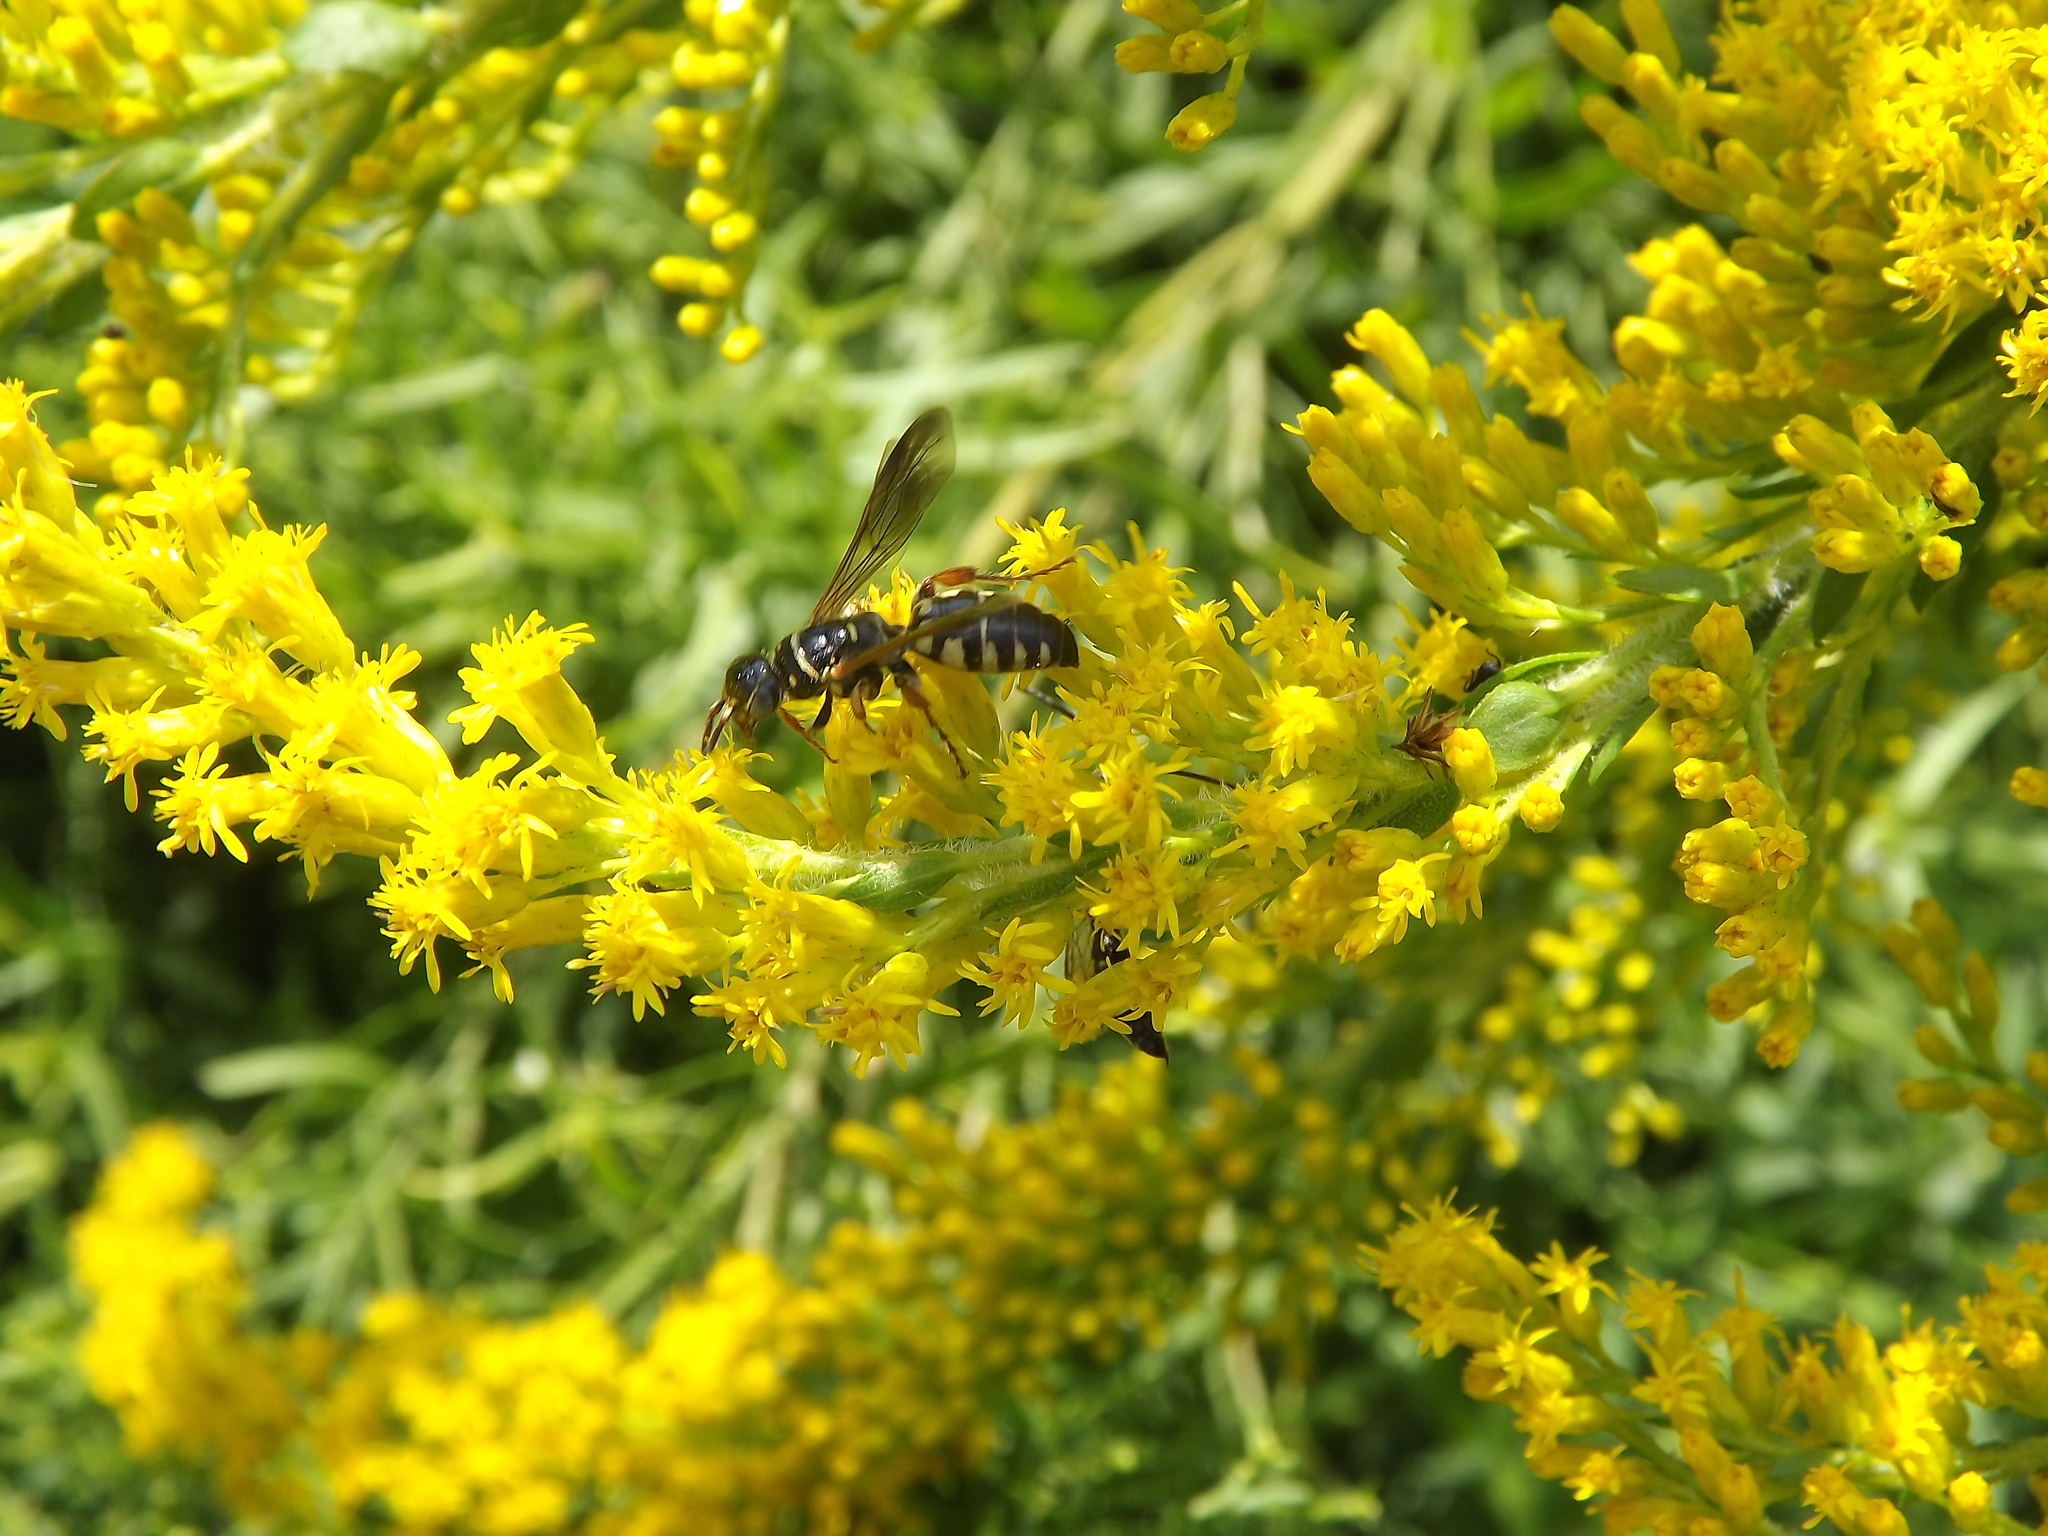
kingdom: Animalia
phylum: Arthropoda
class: Insecta
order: Hymenoptera
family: Tiphiidae
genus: Myzinum
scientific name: Myzinum maculatum
